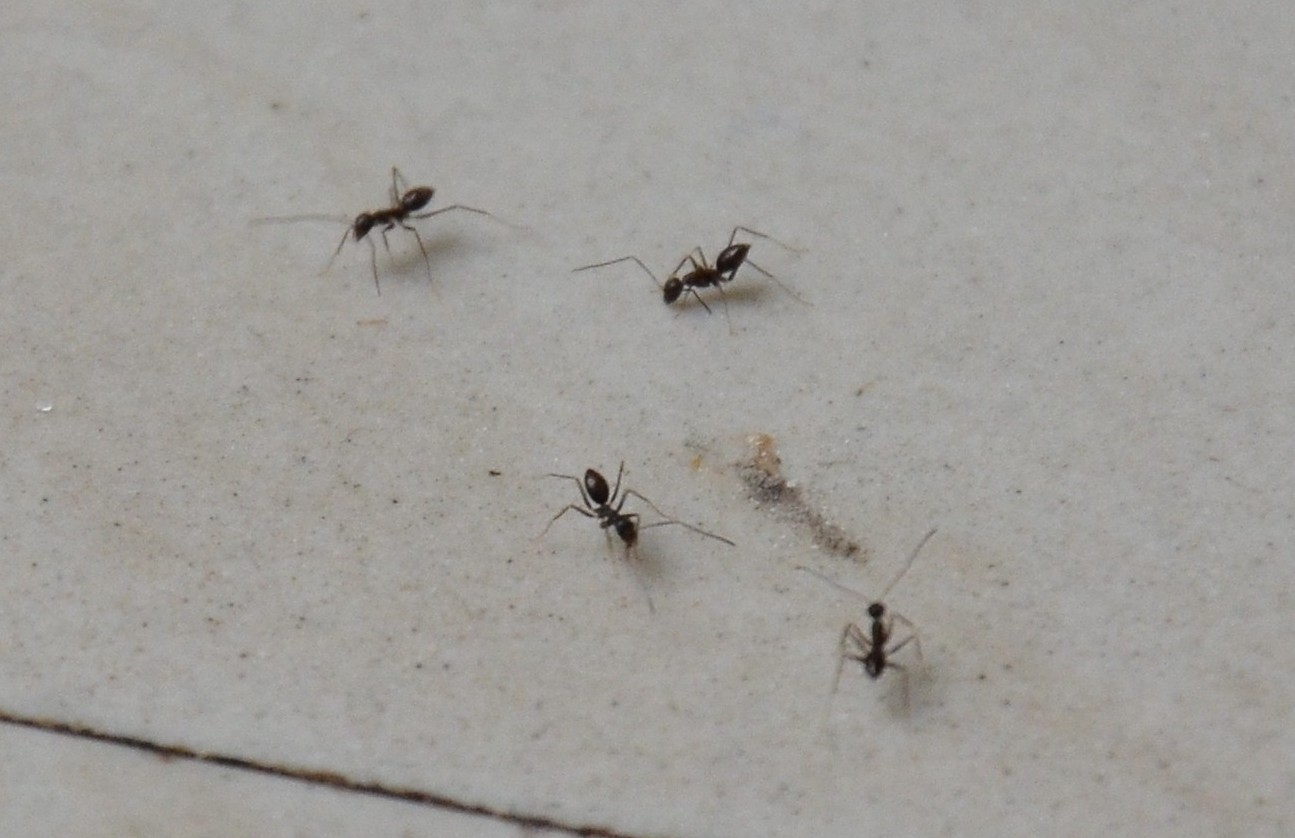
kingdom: Animalia
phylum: Arthropoda
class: Insecta
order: Hymenoptera
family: Formicidae
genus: Paratrechina
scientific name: Paratrechina longicornis
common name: Longhorned crazy ant
